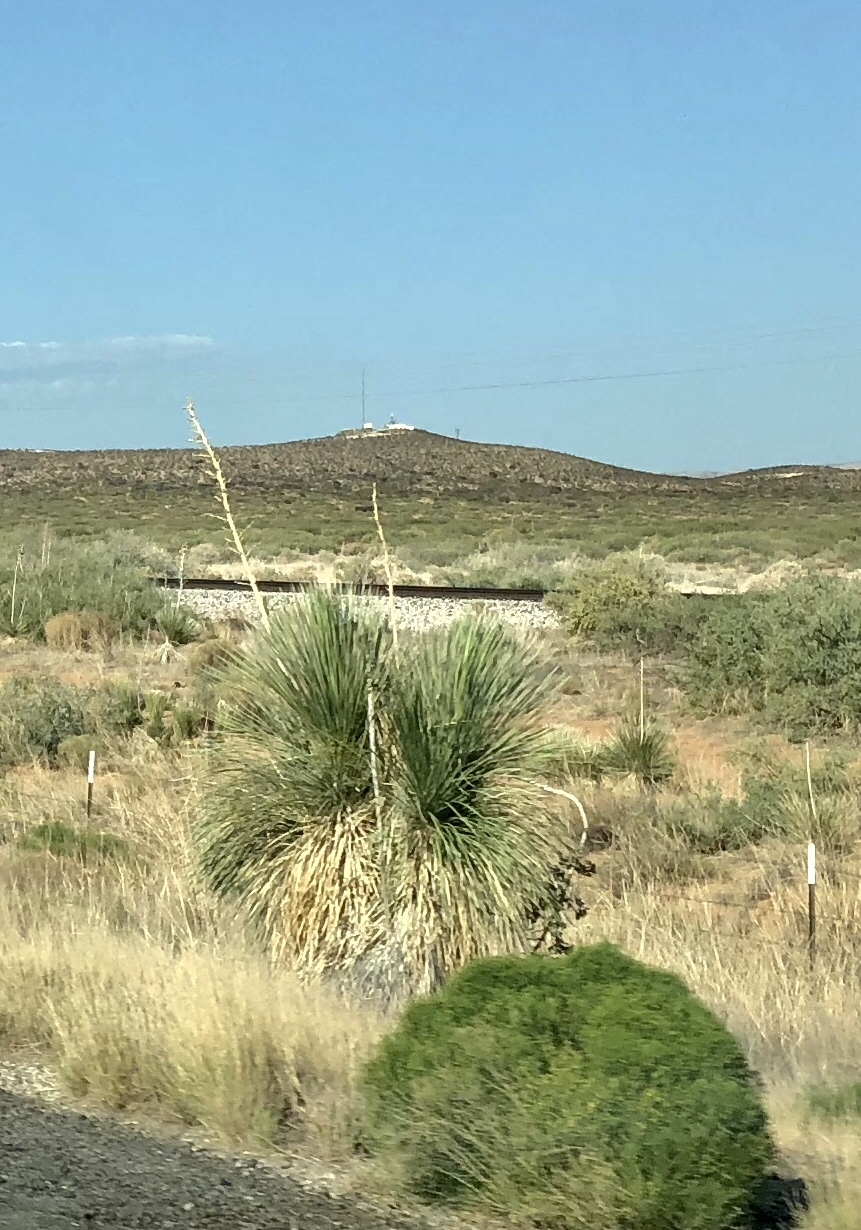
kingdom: Plantae
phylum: Tracheophyta
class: Liliopsida
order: Asparagales
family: Asparagaceae
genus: Yucca
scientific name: Yucca elata
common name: Palmella
